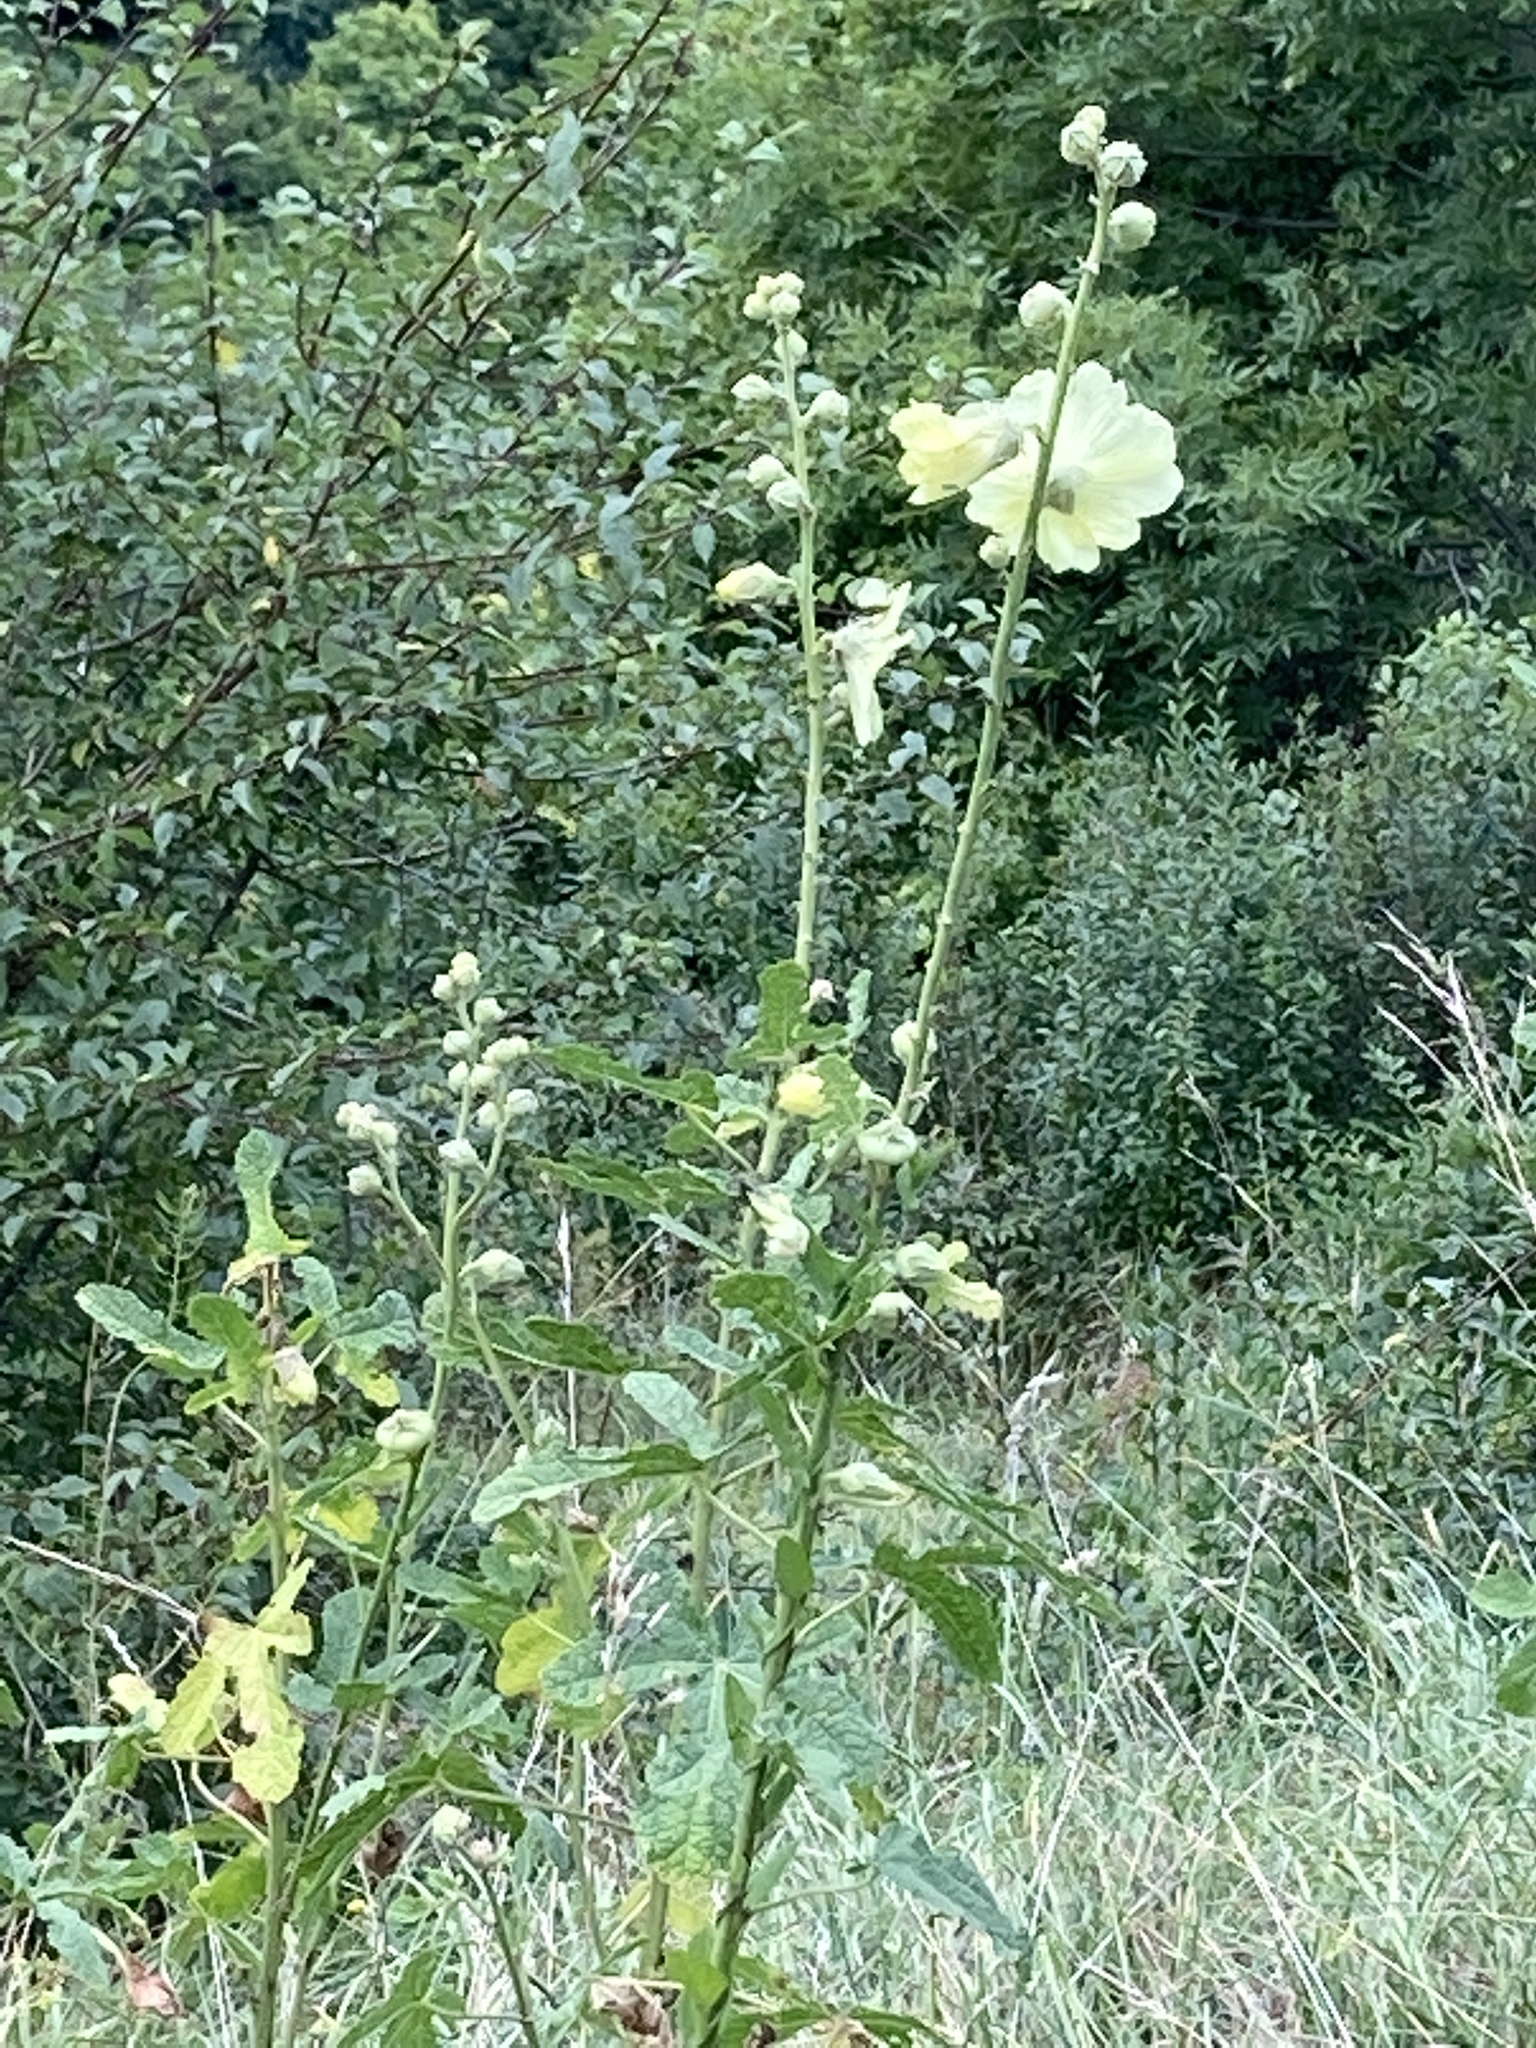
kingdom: Plantae
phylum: Tracheophyta
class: Magnoliopsida
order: Malvales
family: Malvaceae
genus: Alcea
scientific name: Alcea rugosa
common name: Russian hollyhock
